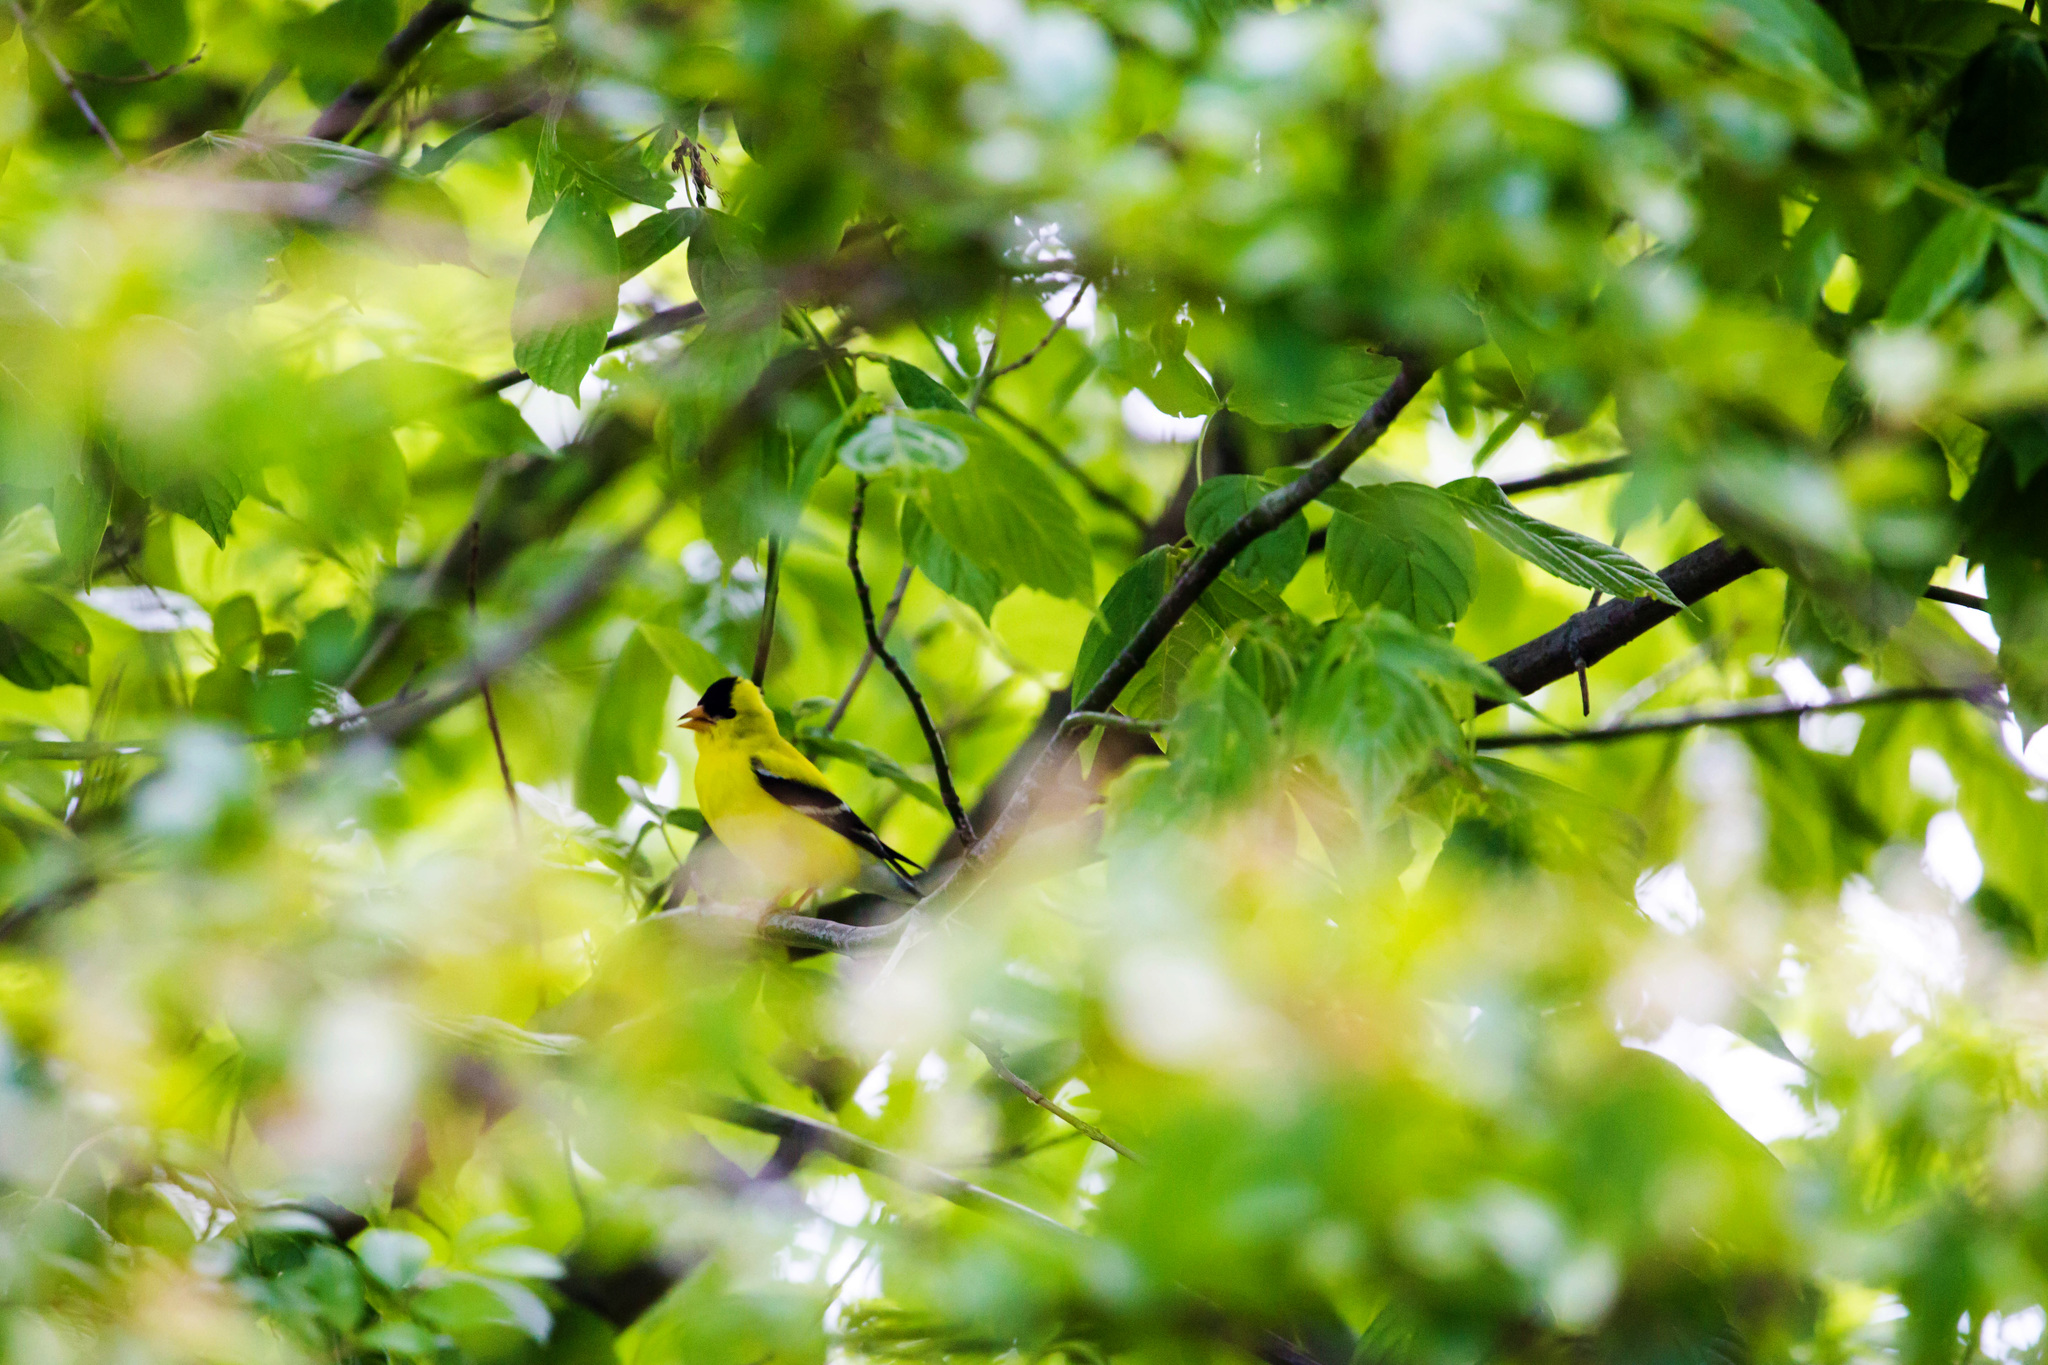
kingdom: Animalia
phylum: Chordata
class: Aves
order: Passeriformes
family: Fringillidae
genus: Spinus
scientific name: Spinus tristis
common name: American goldfinch
